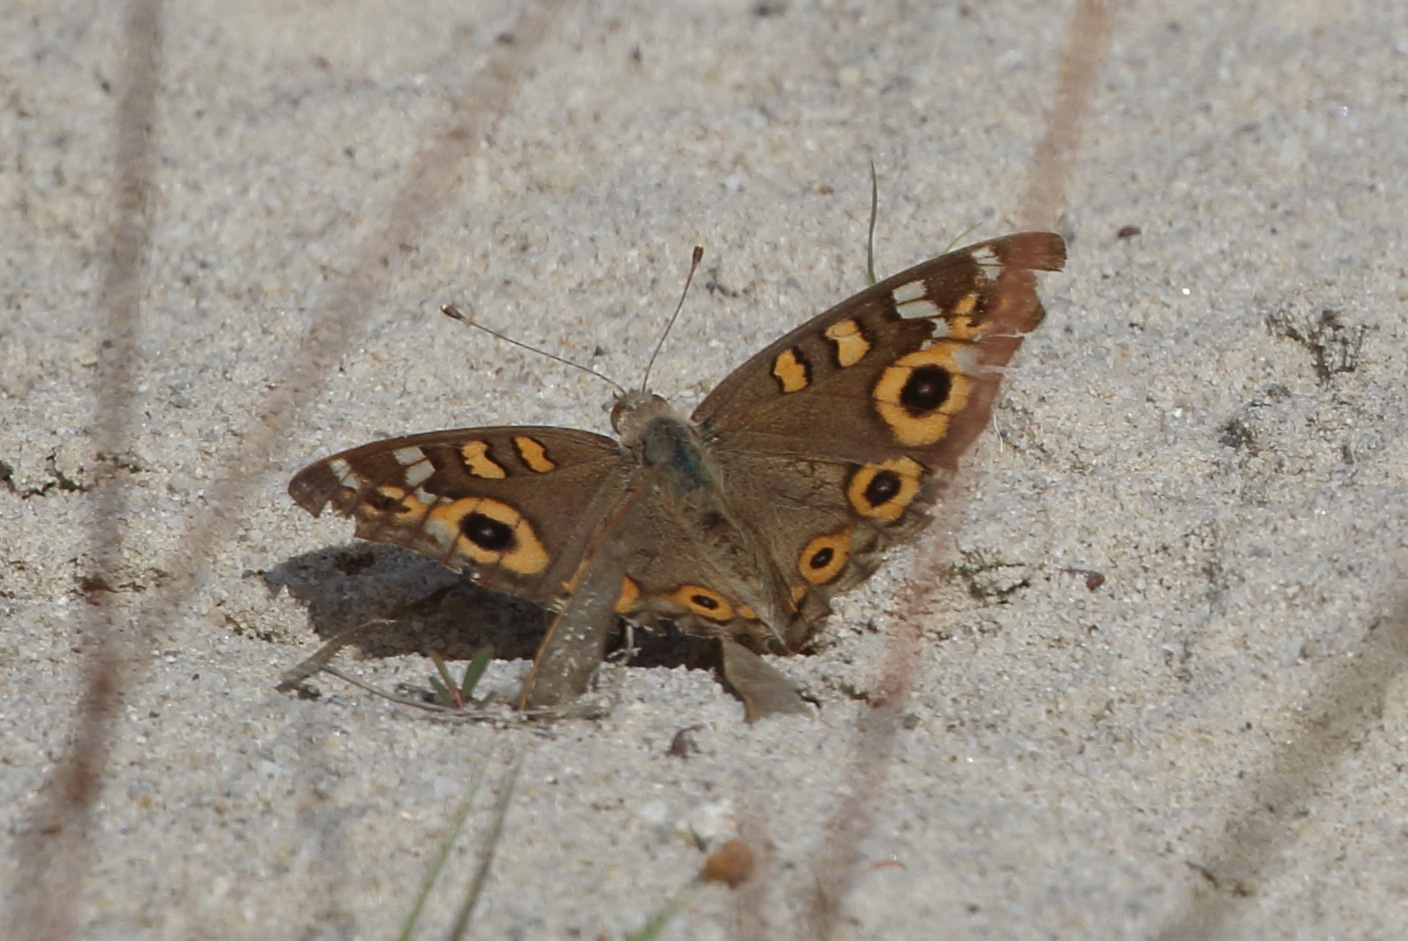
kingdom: Animalia
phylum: Arthropoda
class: Insecta
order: Lepidoptera
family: Nymphalidae
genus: Junonia
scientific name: Junonia villida
